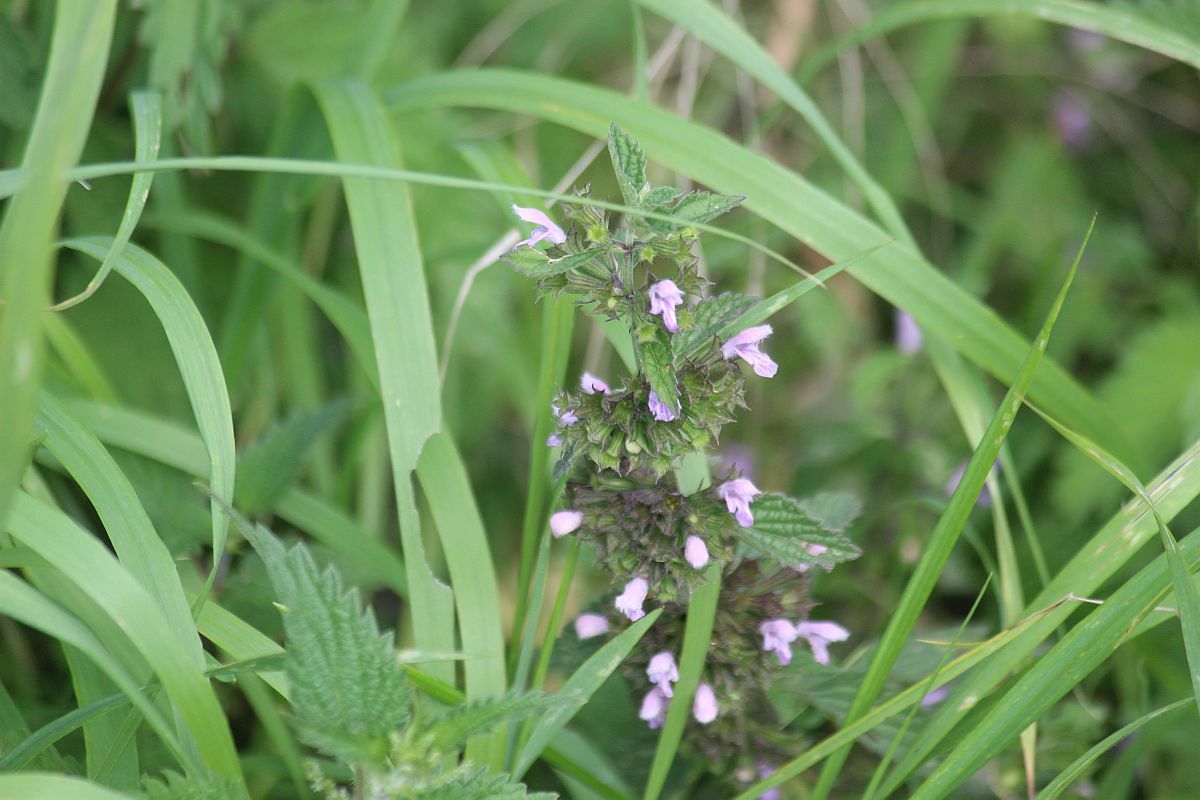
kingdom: Plantae
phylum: Tracheophyta
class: Magnoliopsida
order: Lamiales
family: Lamiaceae
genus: Ballota
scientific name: Ballota nigra
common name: Black horehound
